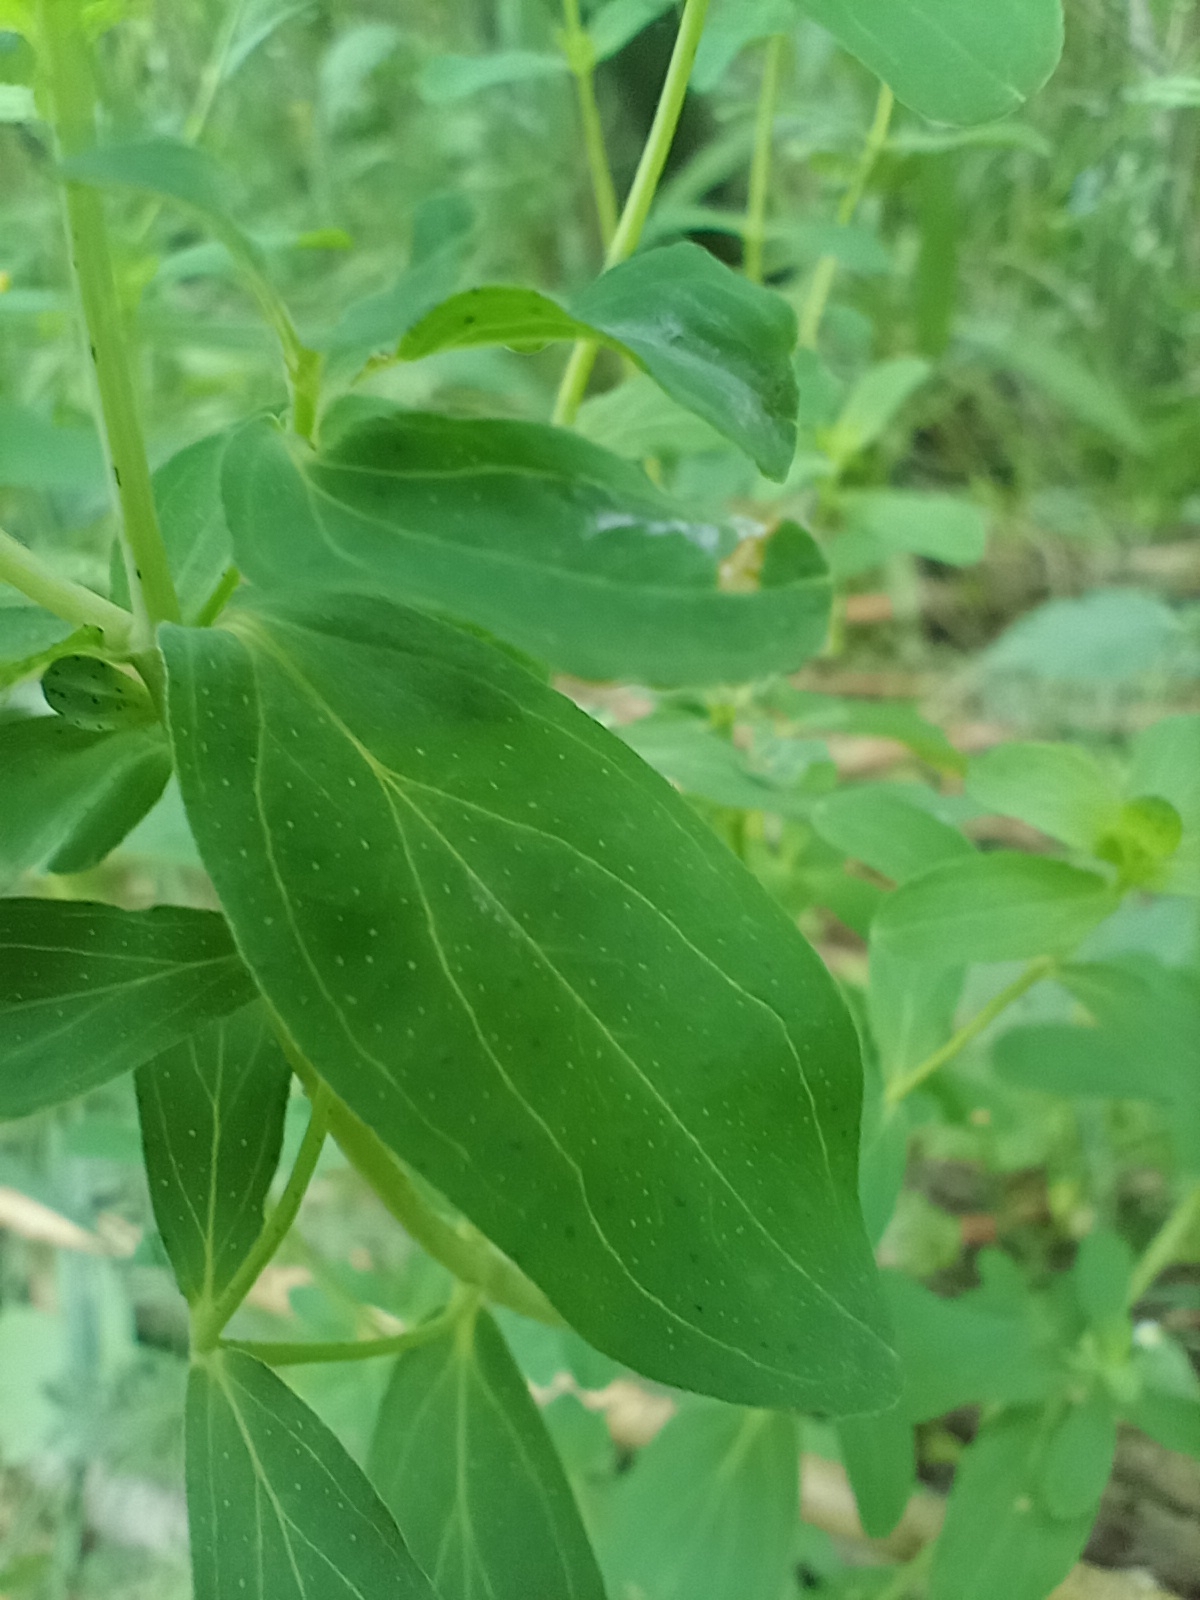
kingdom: Plantae
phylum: Tracheophyta
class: Magnoliopsida
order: Malpighiales
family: Hypericaceae
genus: Hypericum
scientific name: Hypericum perforatum
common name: Common st. johnswort
